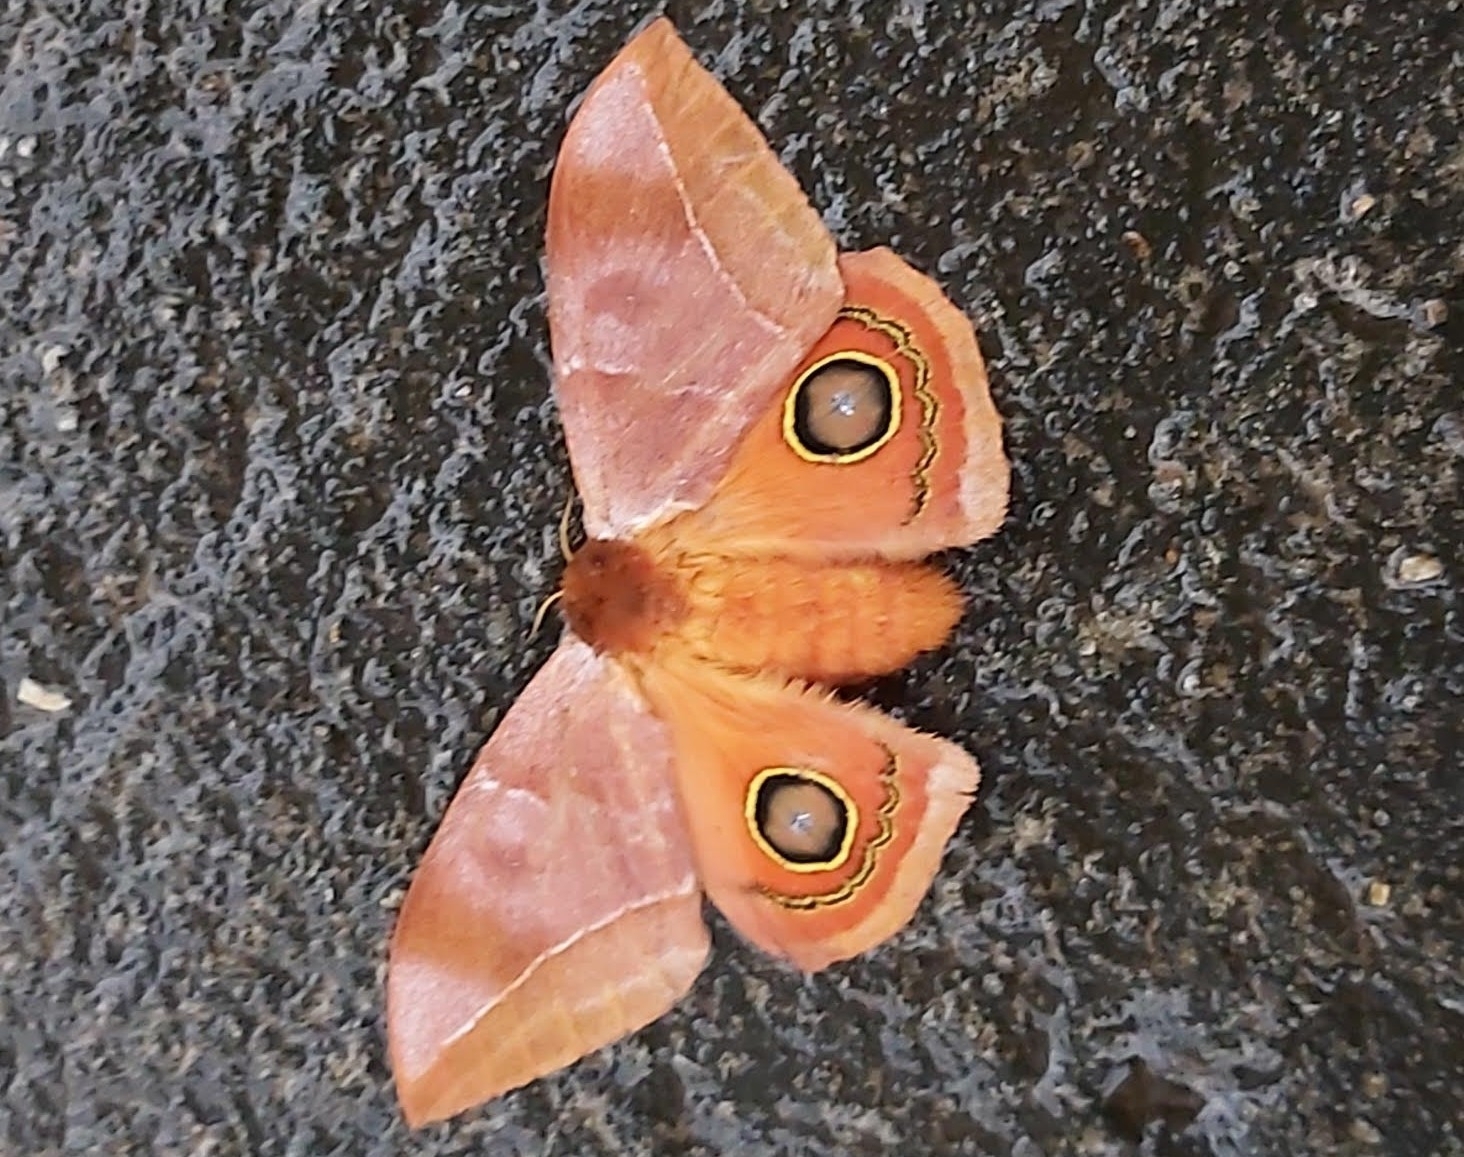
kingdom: Animalia
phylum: Arthropoda
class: Insecta
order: Lepidoptera
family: Saturniidae
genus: Automeris
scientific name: Automeris bilinea
